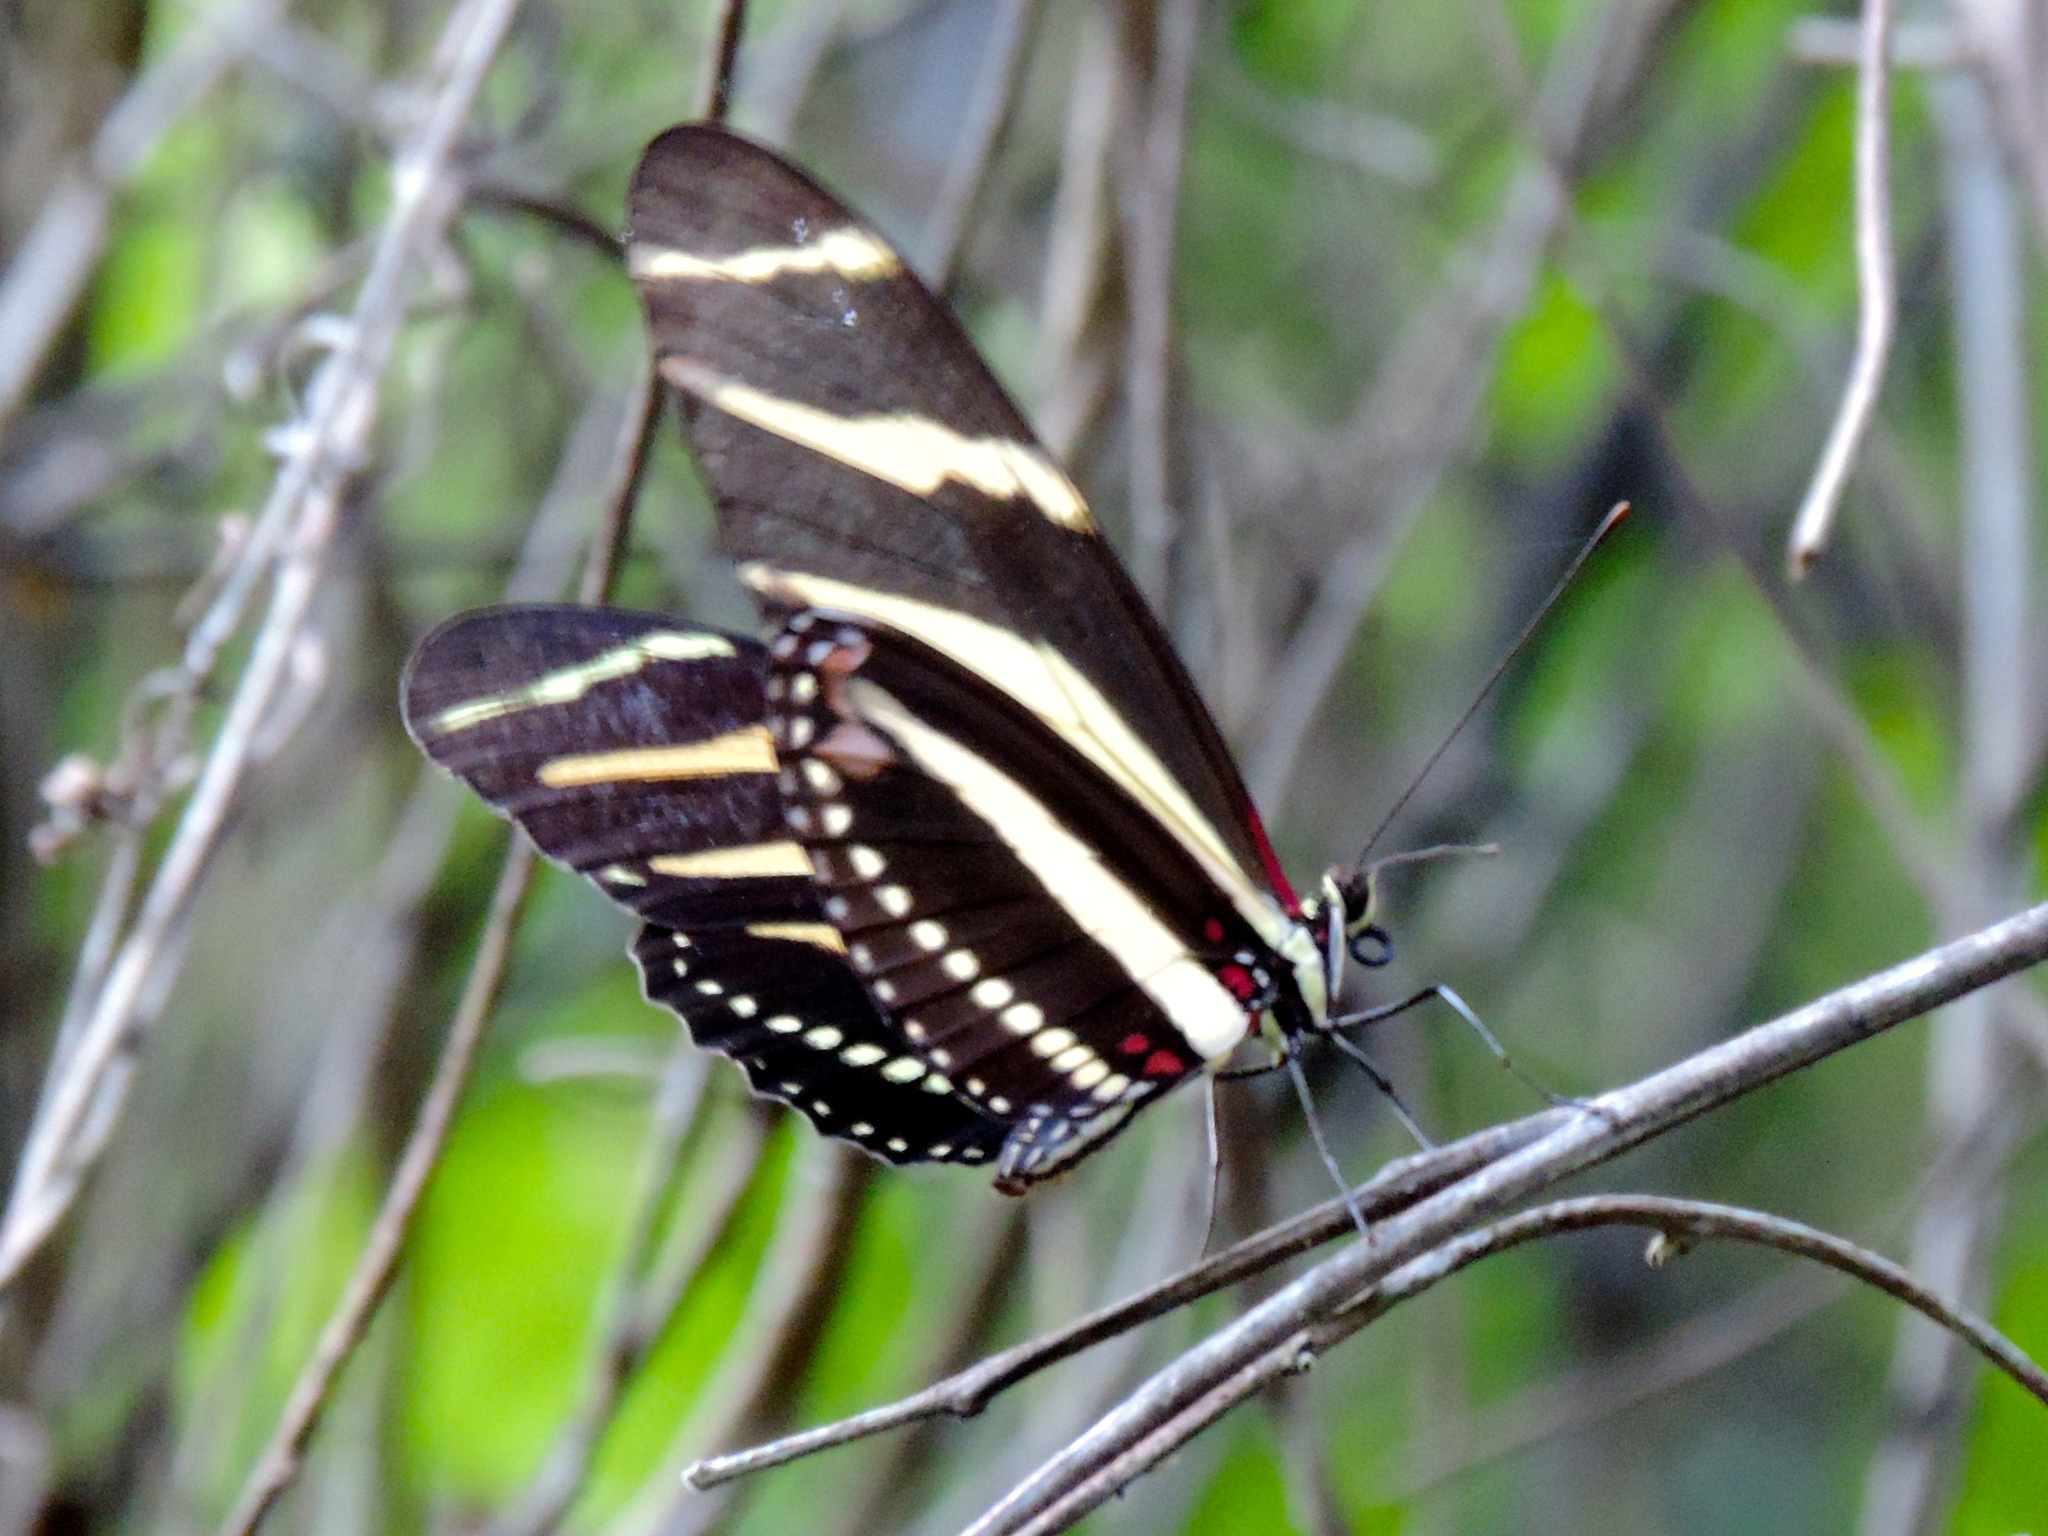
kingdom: Animalia
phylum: Arthropoda
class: Insecta
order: Lepidoptera
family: Nymphalidae
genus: Heliconius
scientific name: Heliconius charithonia
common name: Zebra long wing
